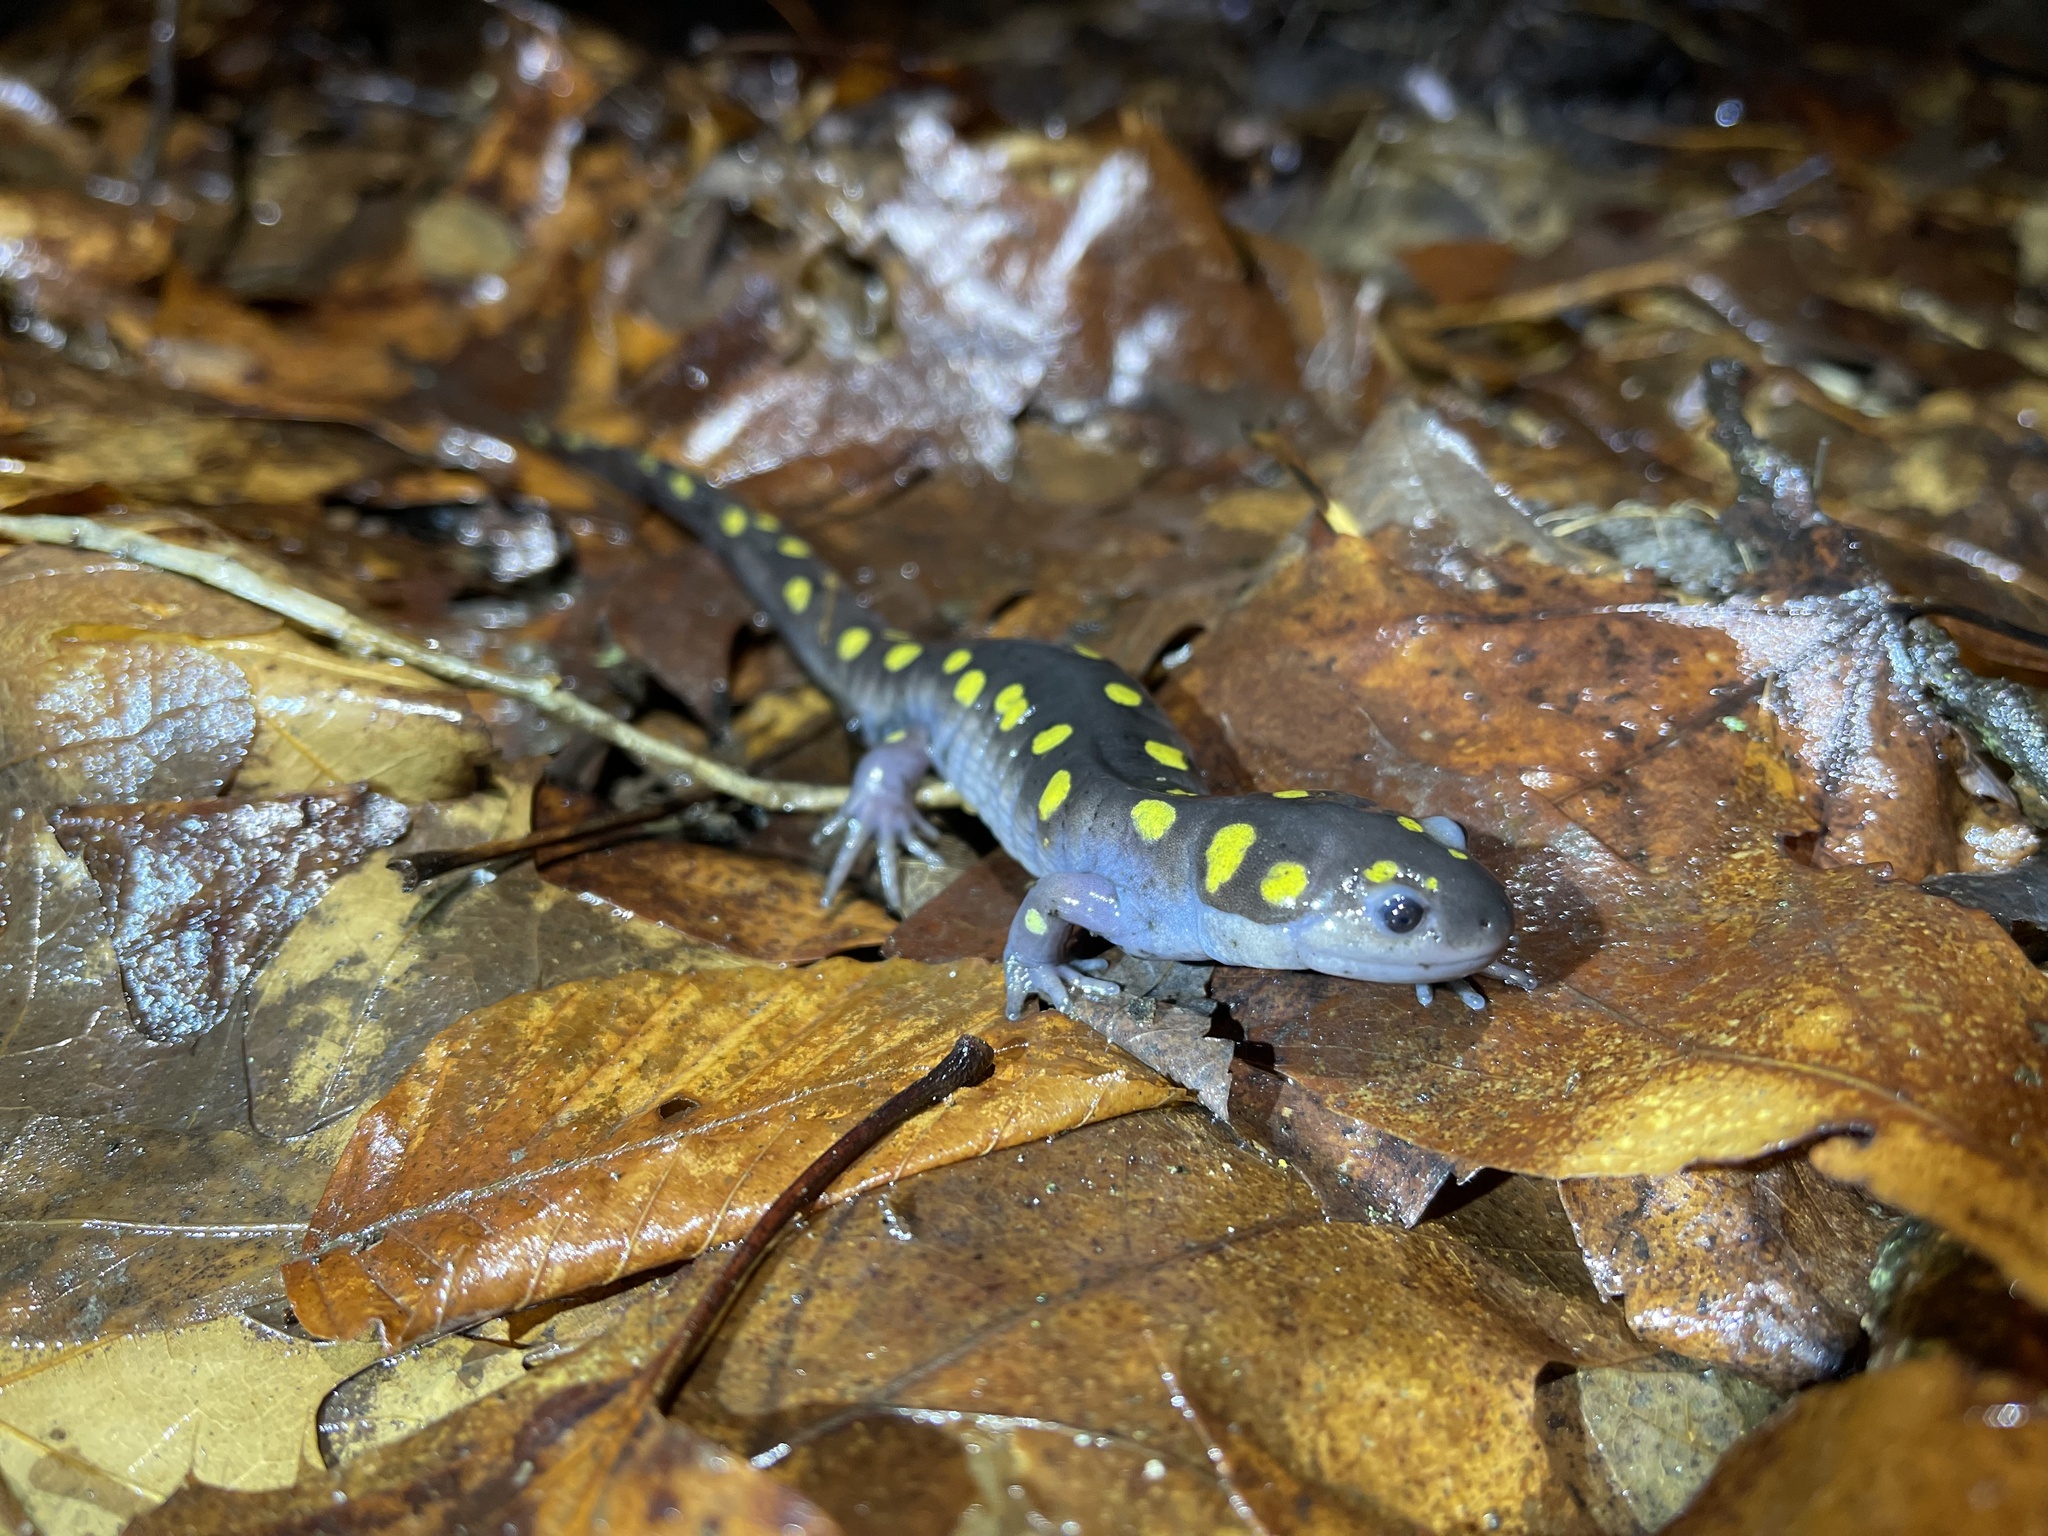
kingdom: Animalia
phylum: Chordata
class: Amphibia
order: Caudata
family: Ambystomatidae
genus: Ambystoma
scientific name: Ambystoma maculatum
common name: Spotted salamander
